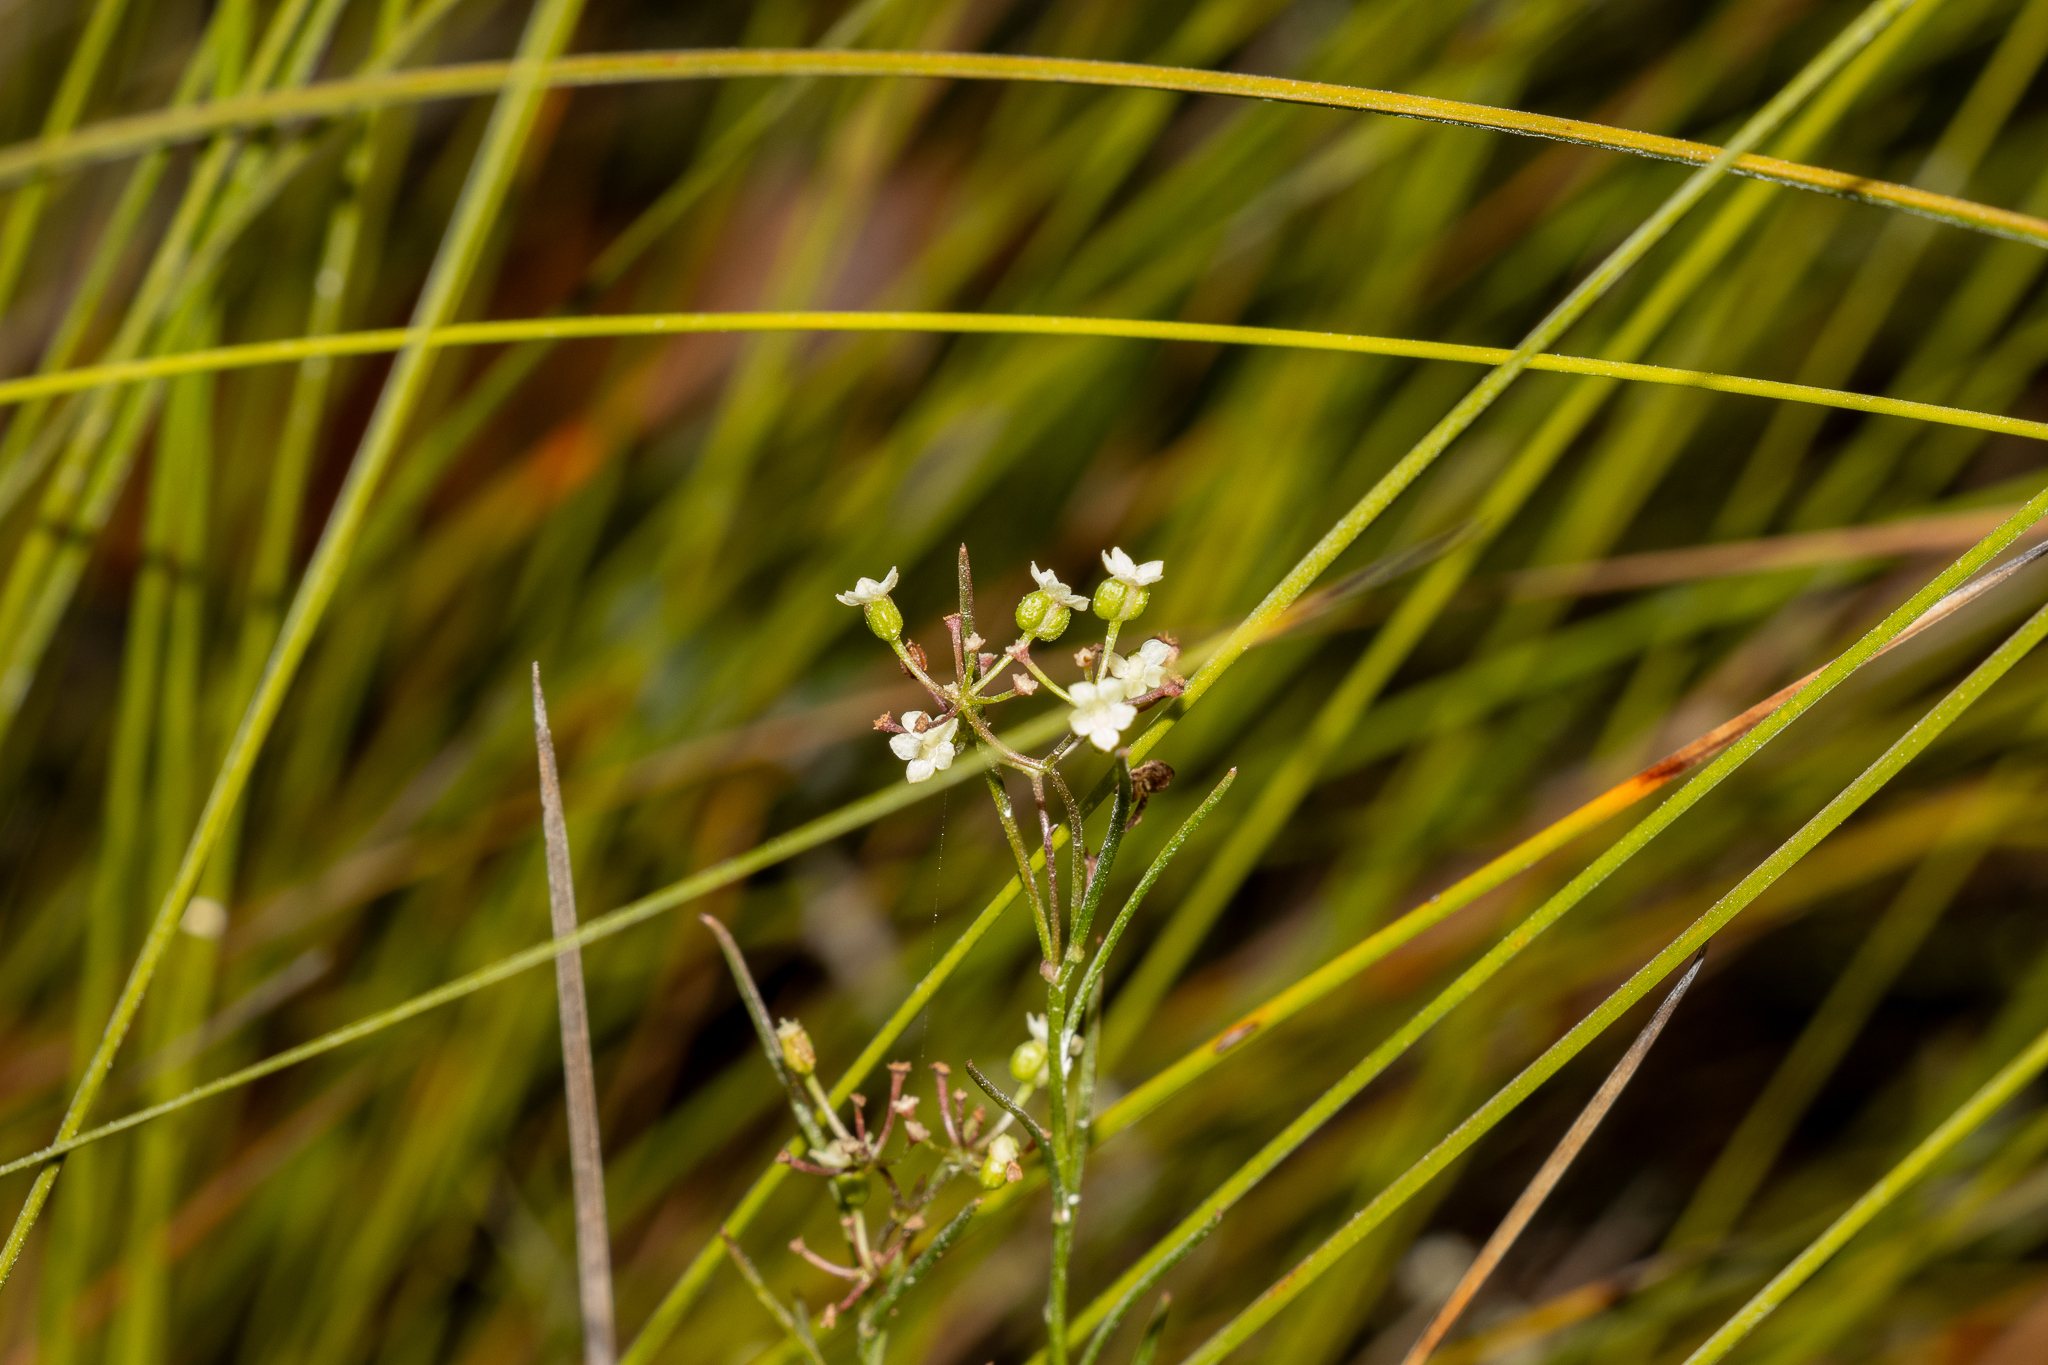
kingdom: Plantae
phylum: Tracheophyta
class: Magnoliopsida
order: Apiales
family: Apiaceae
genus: Platysace
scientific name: Platysace heterophylla
